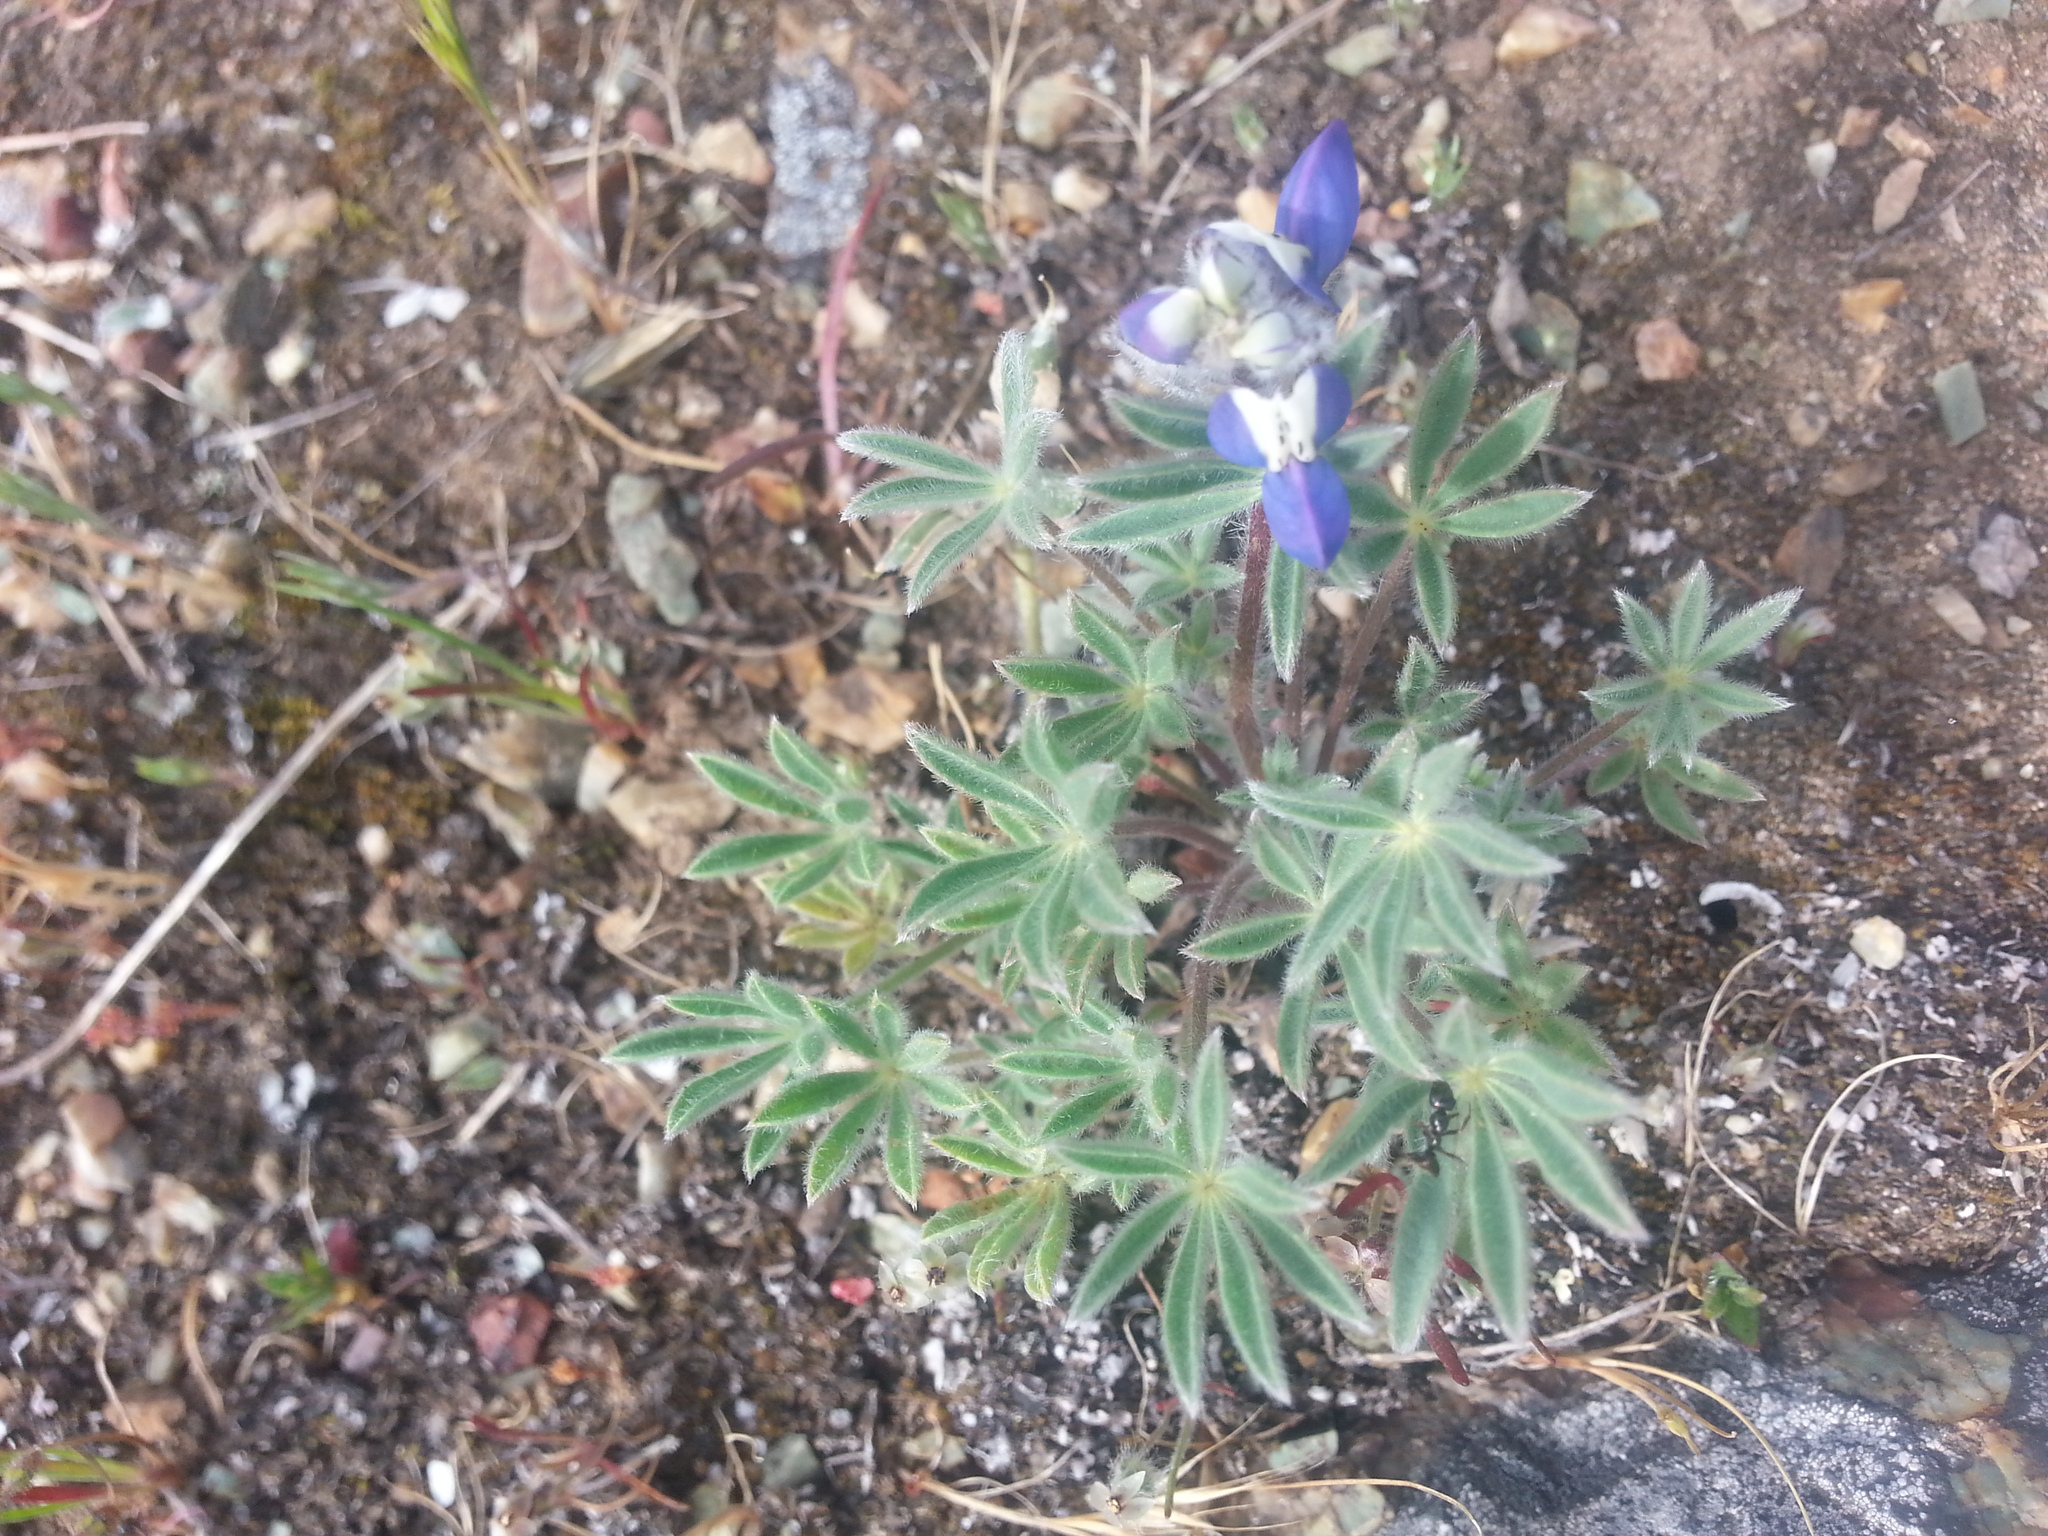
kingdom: Plantae
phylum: Tracheophyta
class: Magnoliopsida
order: Fabales
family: Fabaceae
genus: Lupinus
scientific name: Lupinus bicolor
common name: Miniature lupine
